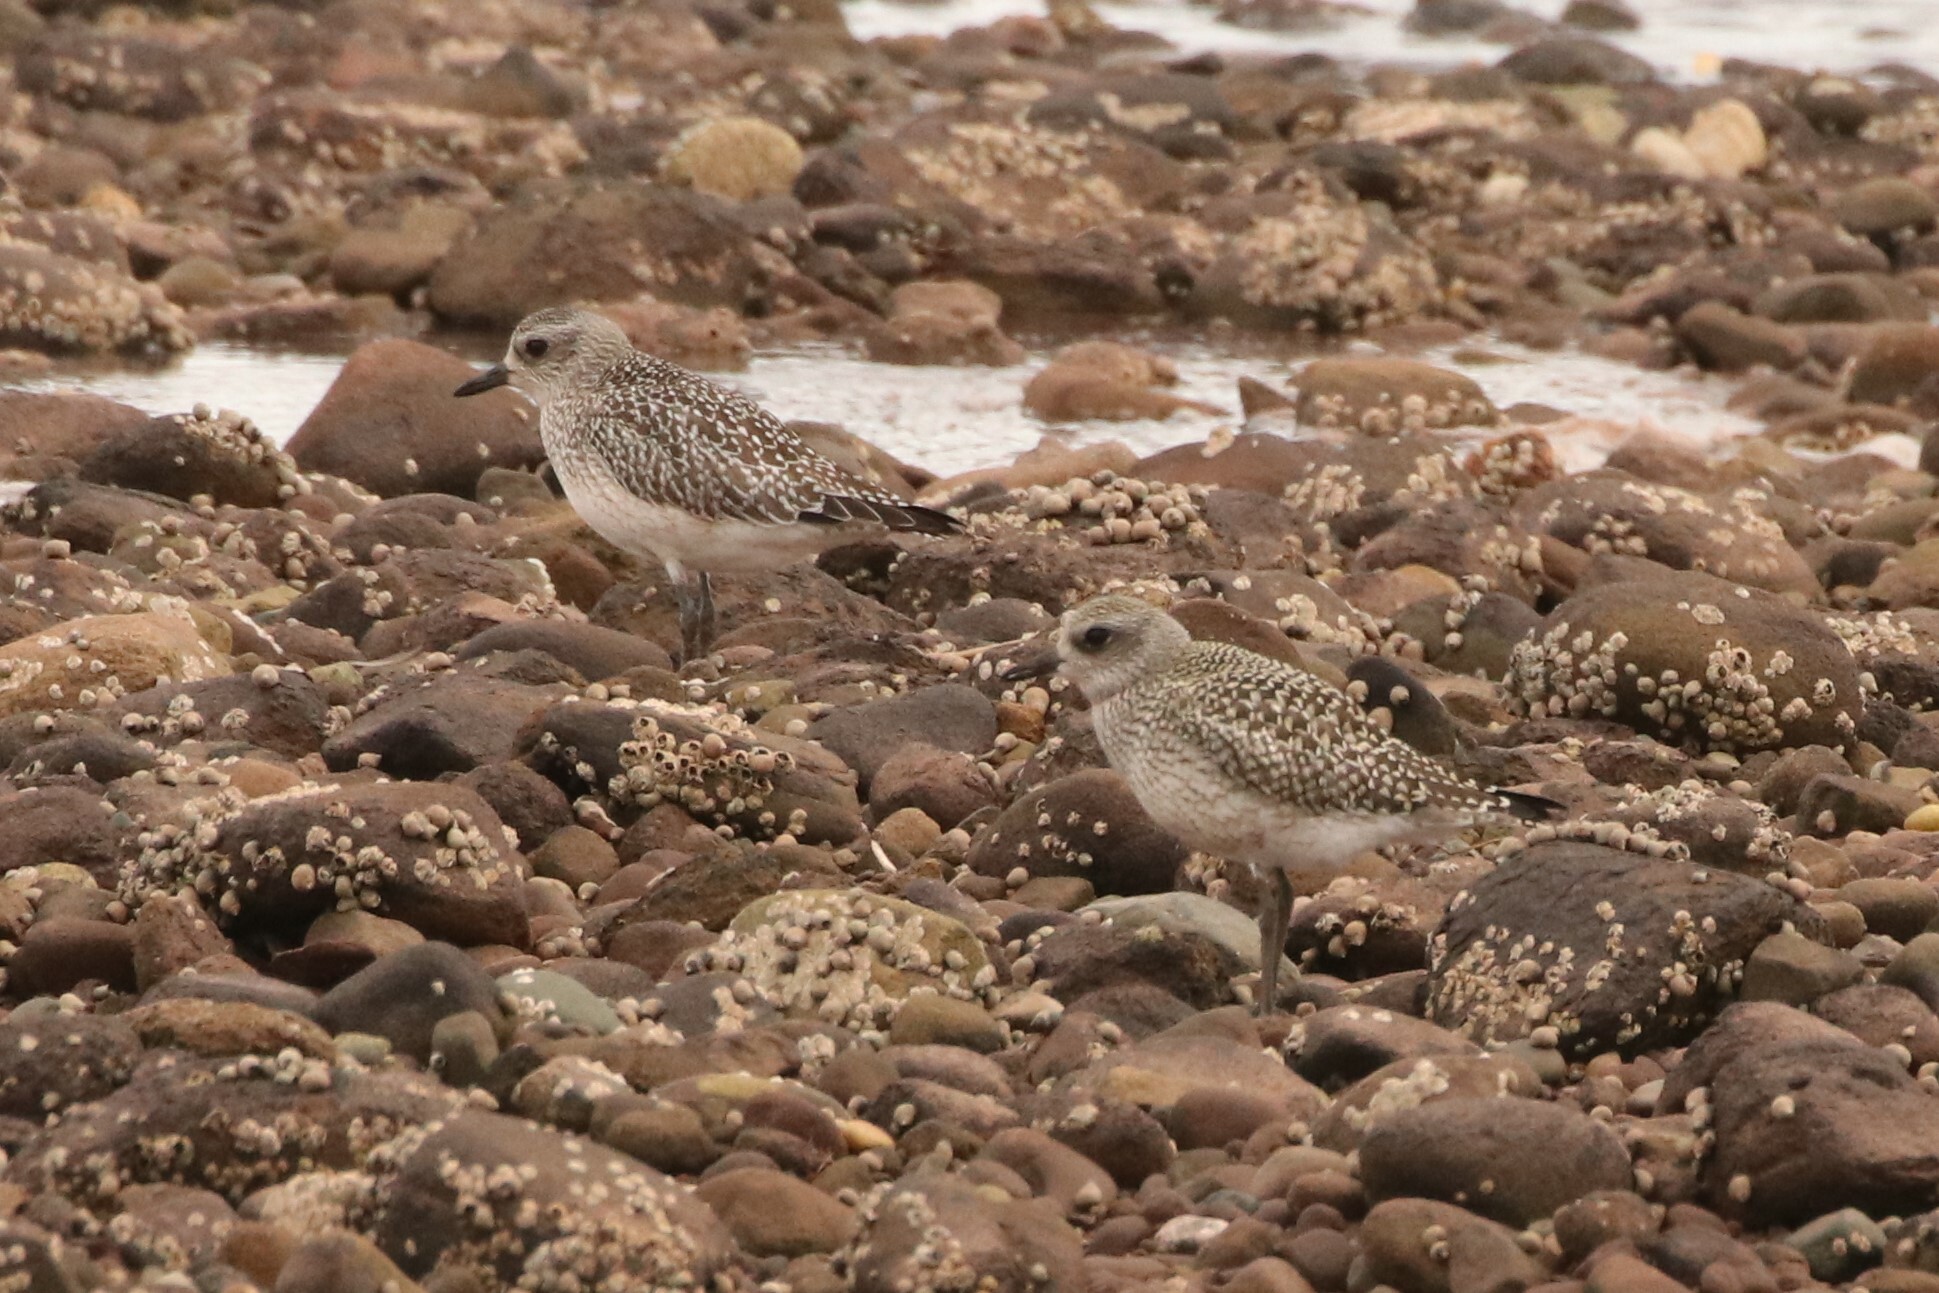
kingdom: Animalia
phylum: Chordata
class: Aves
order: Charadriiformes
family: Charadriidae
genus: Pluvialis
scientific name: Pluvialis squatarola
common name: Grey plover
